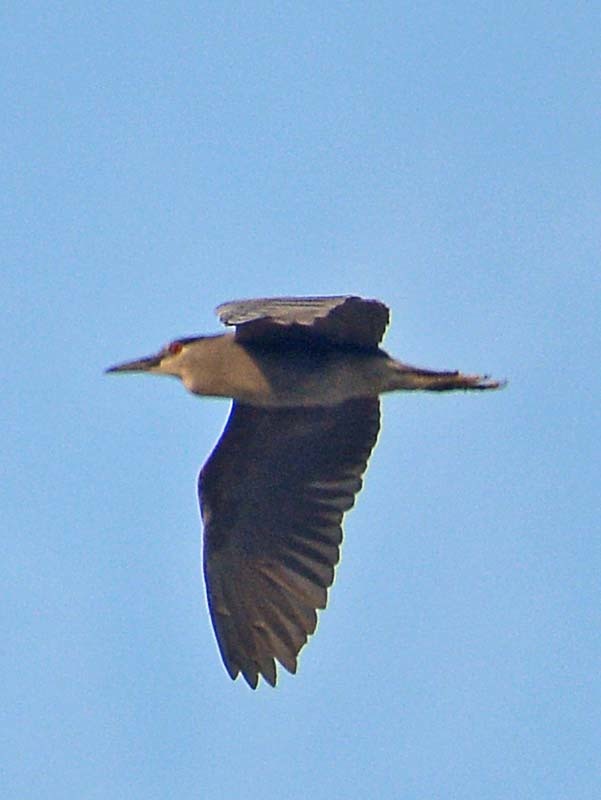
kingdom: Animalia
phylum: Chordata
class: Aves
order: Pelecaniformes
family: Ardeidae
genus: Nycticorax
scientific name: Nycticorax nycticorax
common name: Black-crowned night heron
